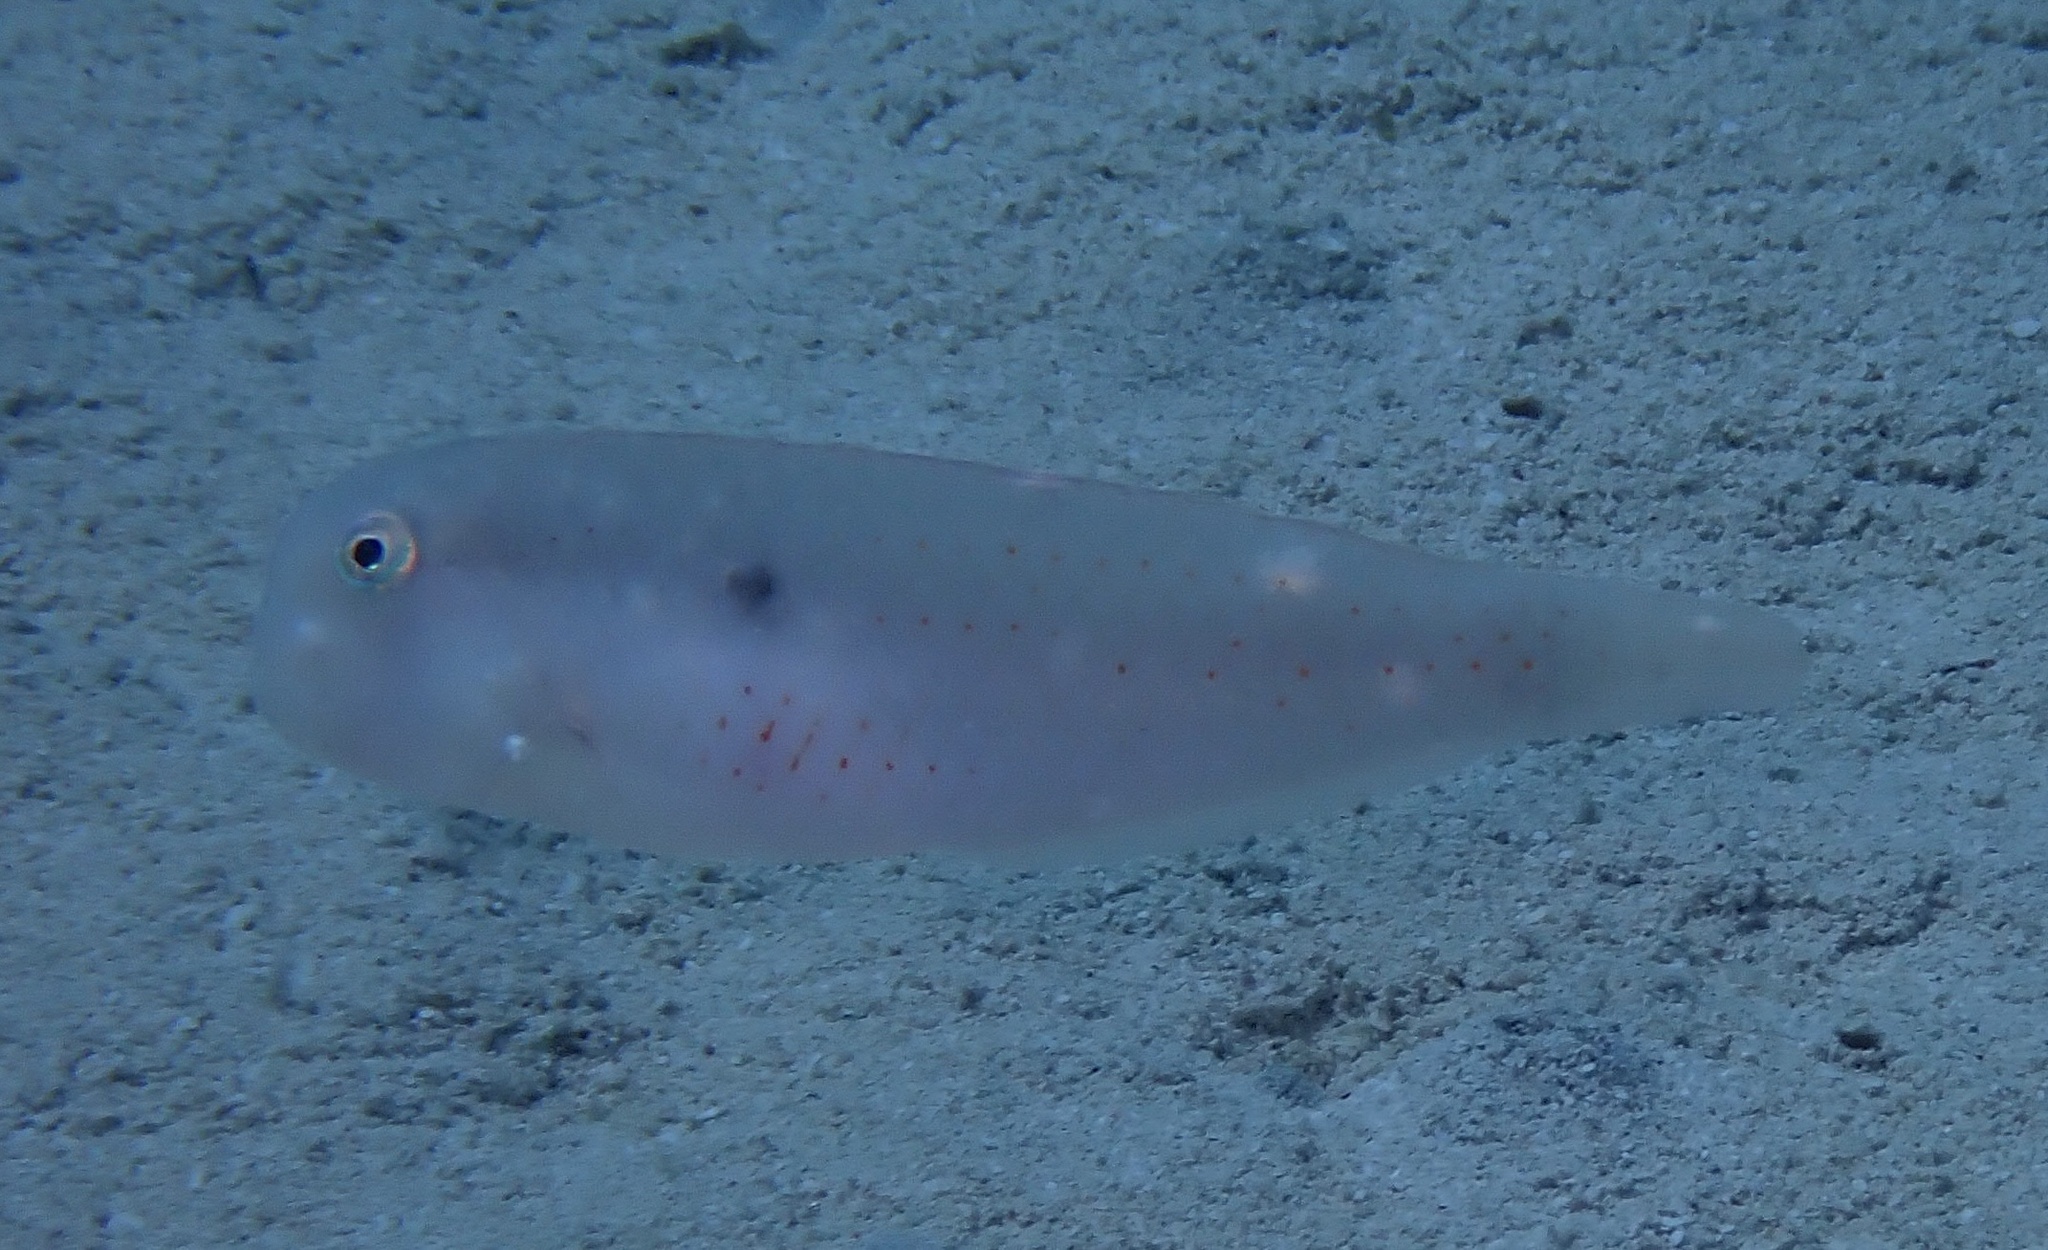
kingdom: Animalia
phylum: Chordata
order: Perciformes
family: Labridae
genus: Iniistius
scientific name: Iniistius pentadactylus
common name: Fivefinger razorfish
